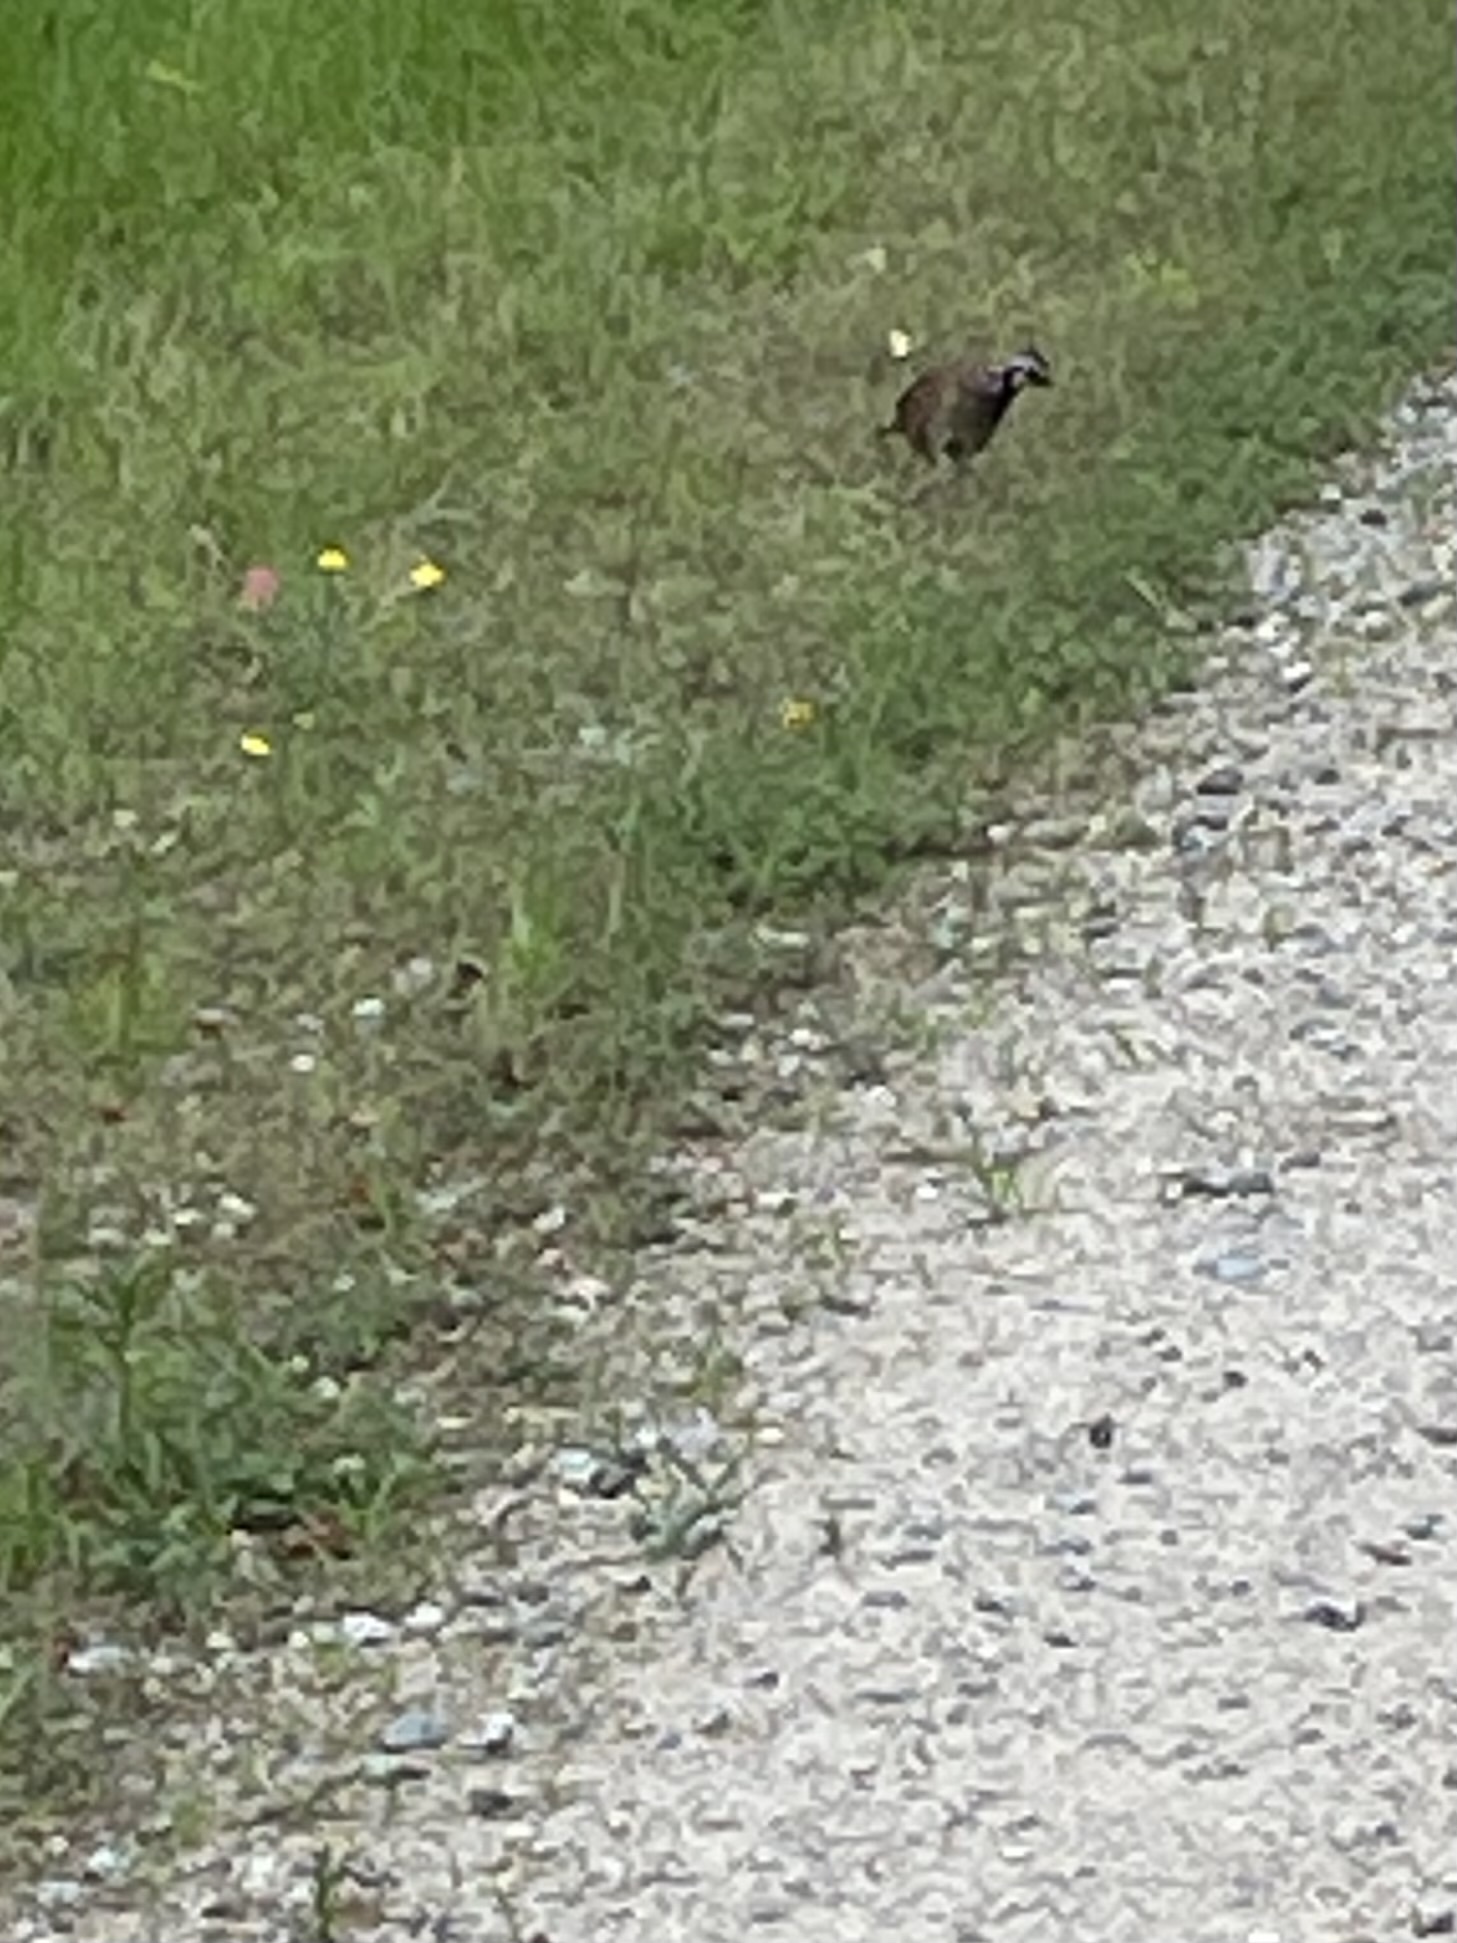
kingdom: Animalia
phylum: Chordata
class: Aves
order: Galliformes
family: Odontophoridae
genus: Colinus
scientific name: Colinus virginianus
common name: Northern bobwhite
